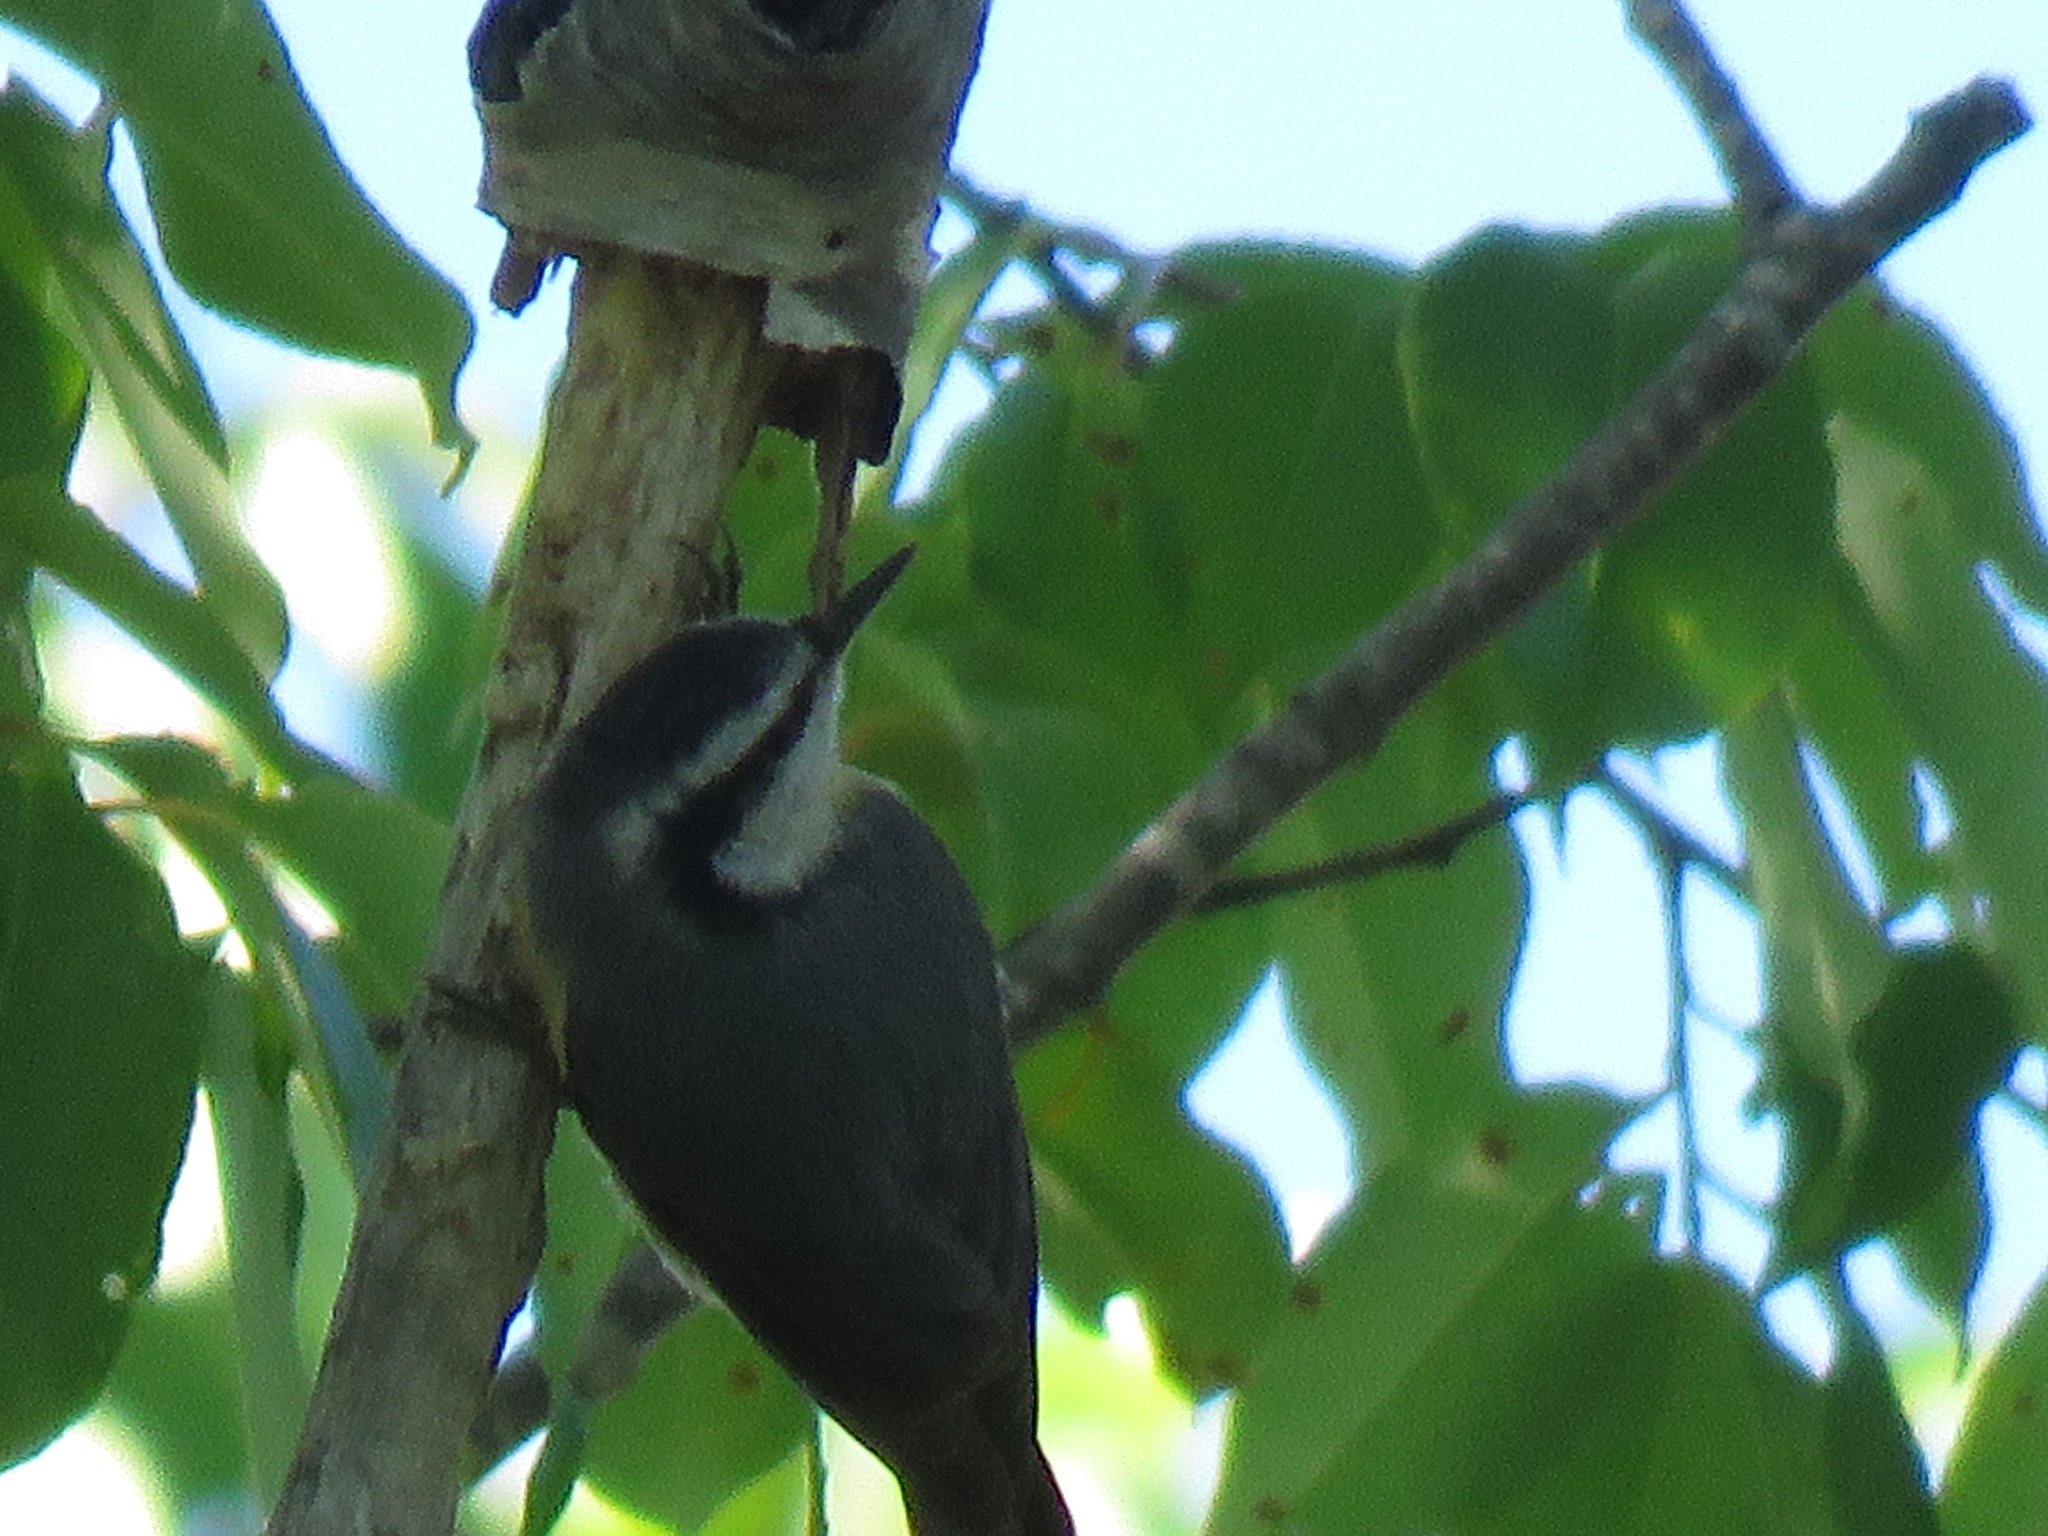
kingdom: Animalia
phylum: Chordata
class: Aves
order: Passeriformes
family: Sittidae
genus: Sitta
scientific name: Sitta canadensis
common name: Red-breasted nuthatch
